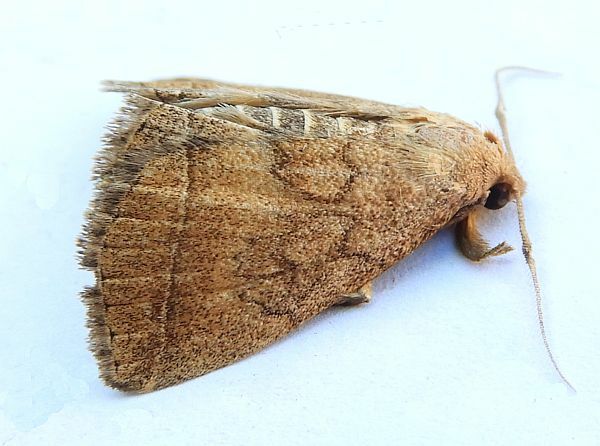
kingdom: Animalia
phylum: Arthropoda
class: Insecta
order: Lepidoptera
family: Erebidae
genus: Zanclognatha
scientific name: Zanclognatha jacchusalis
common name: Yellowish zanclognatha
